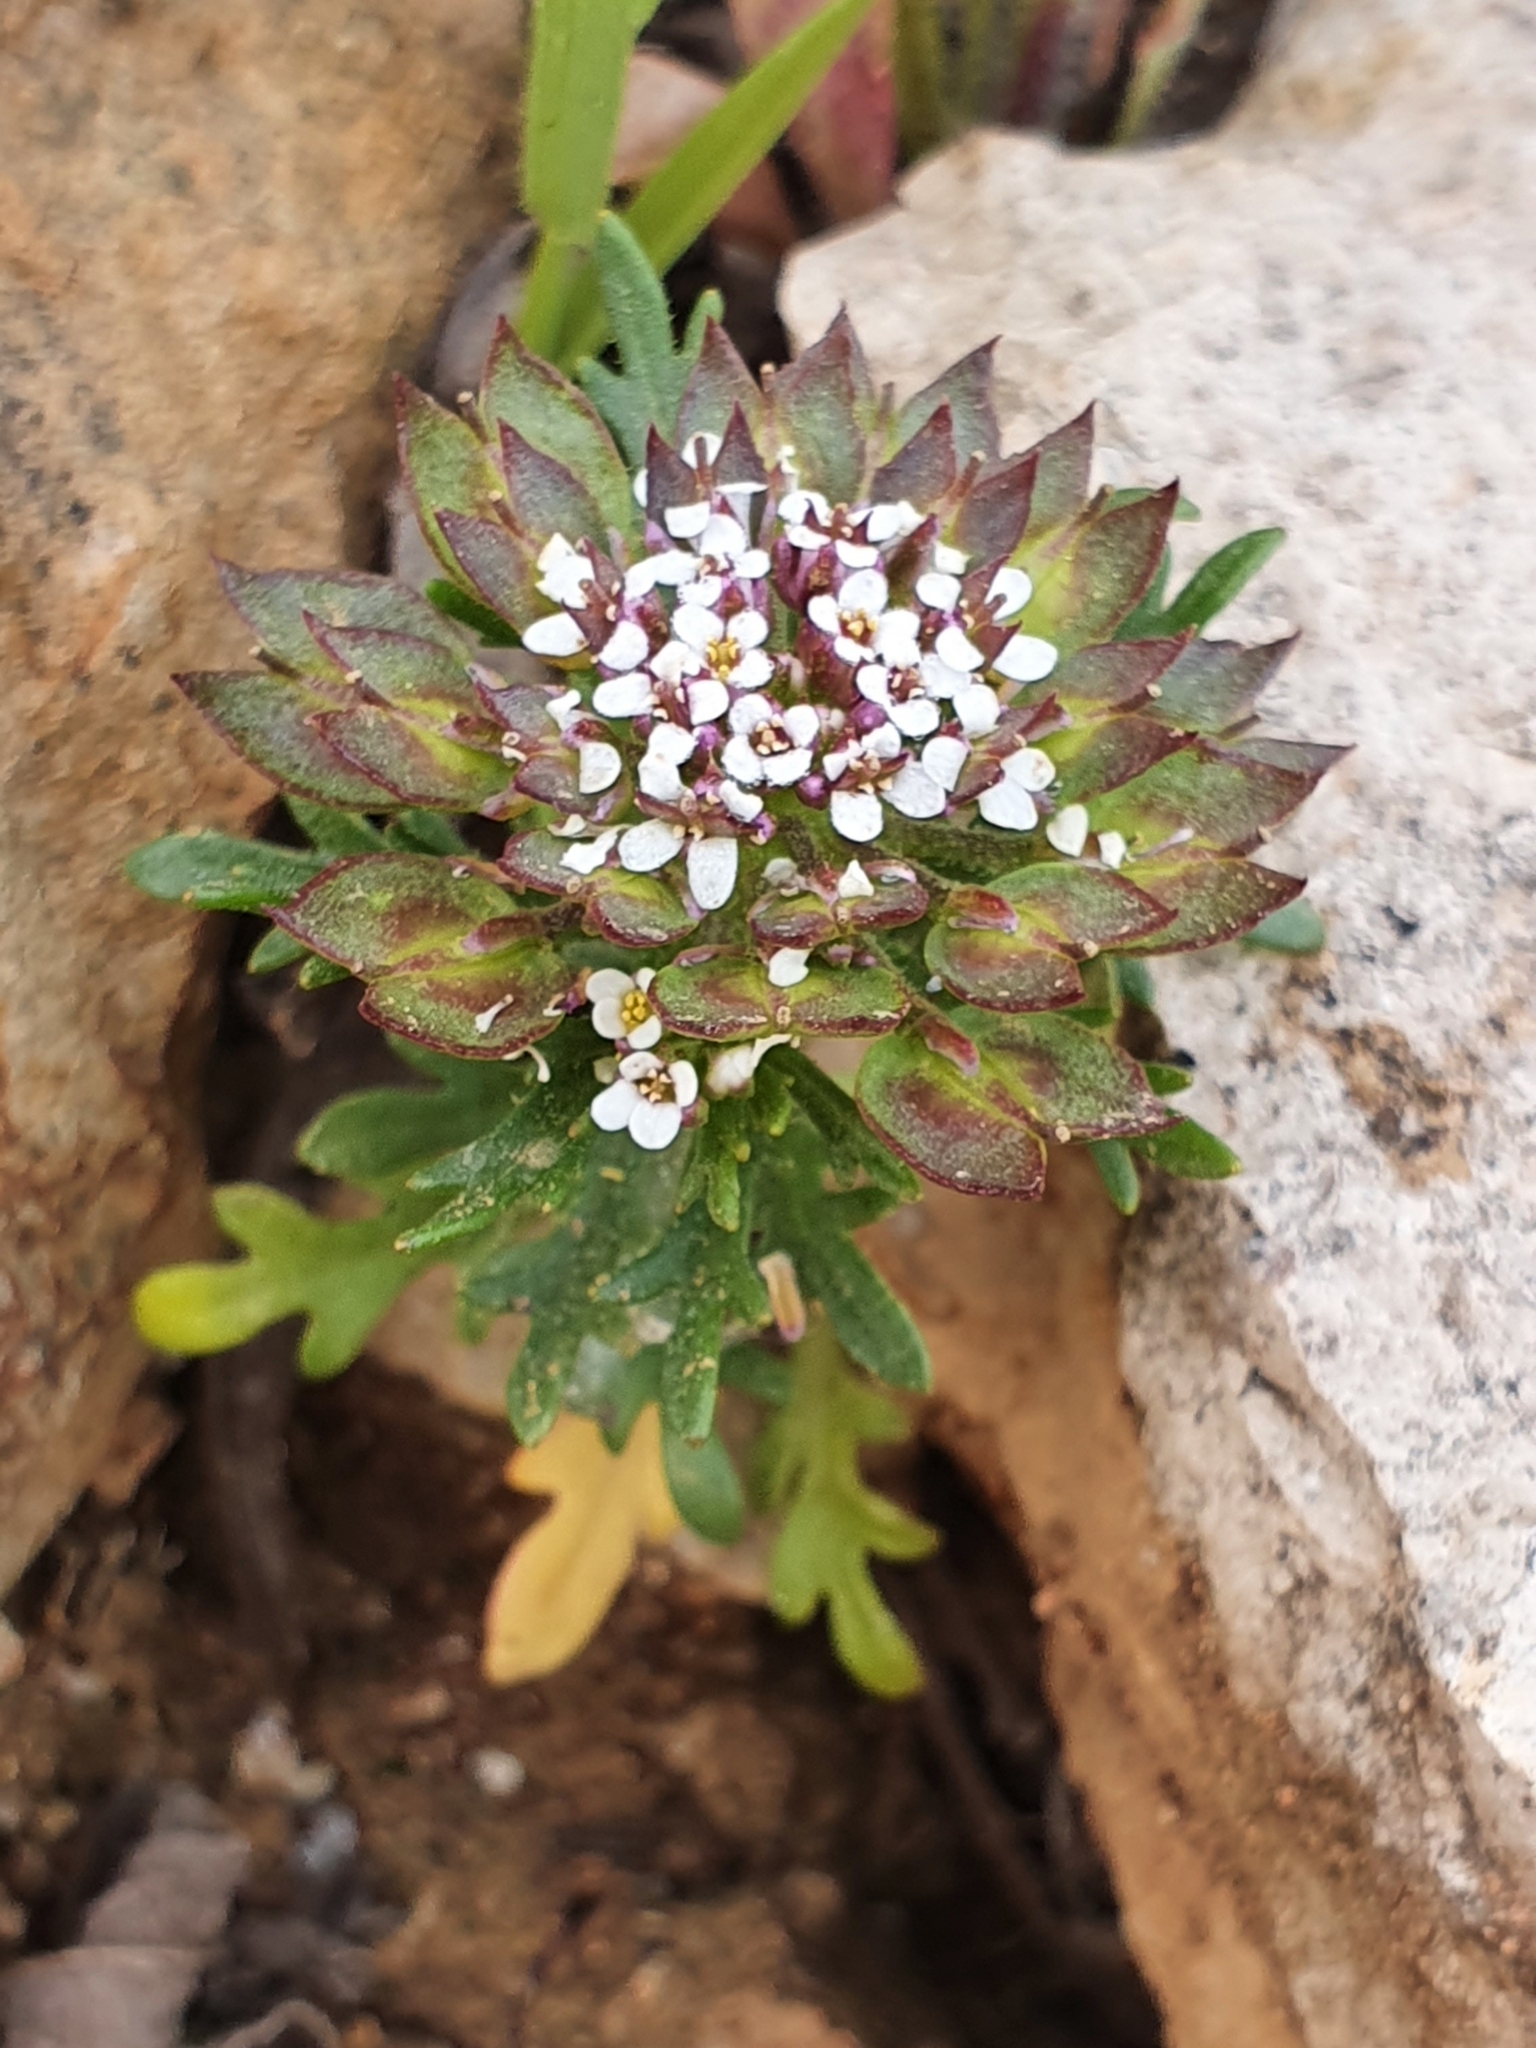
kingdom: Plantae
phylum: Tracheophyta
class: Magnoliopsida
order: Brassicales
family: Brassicaceae
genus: Iberis
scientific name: Iberis odorata
